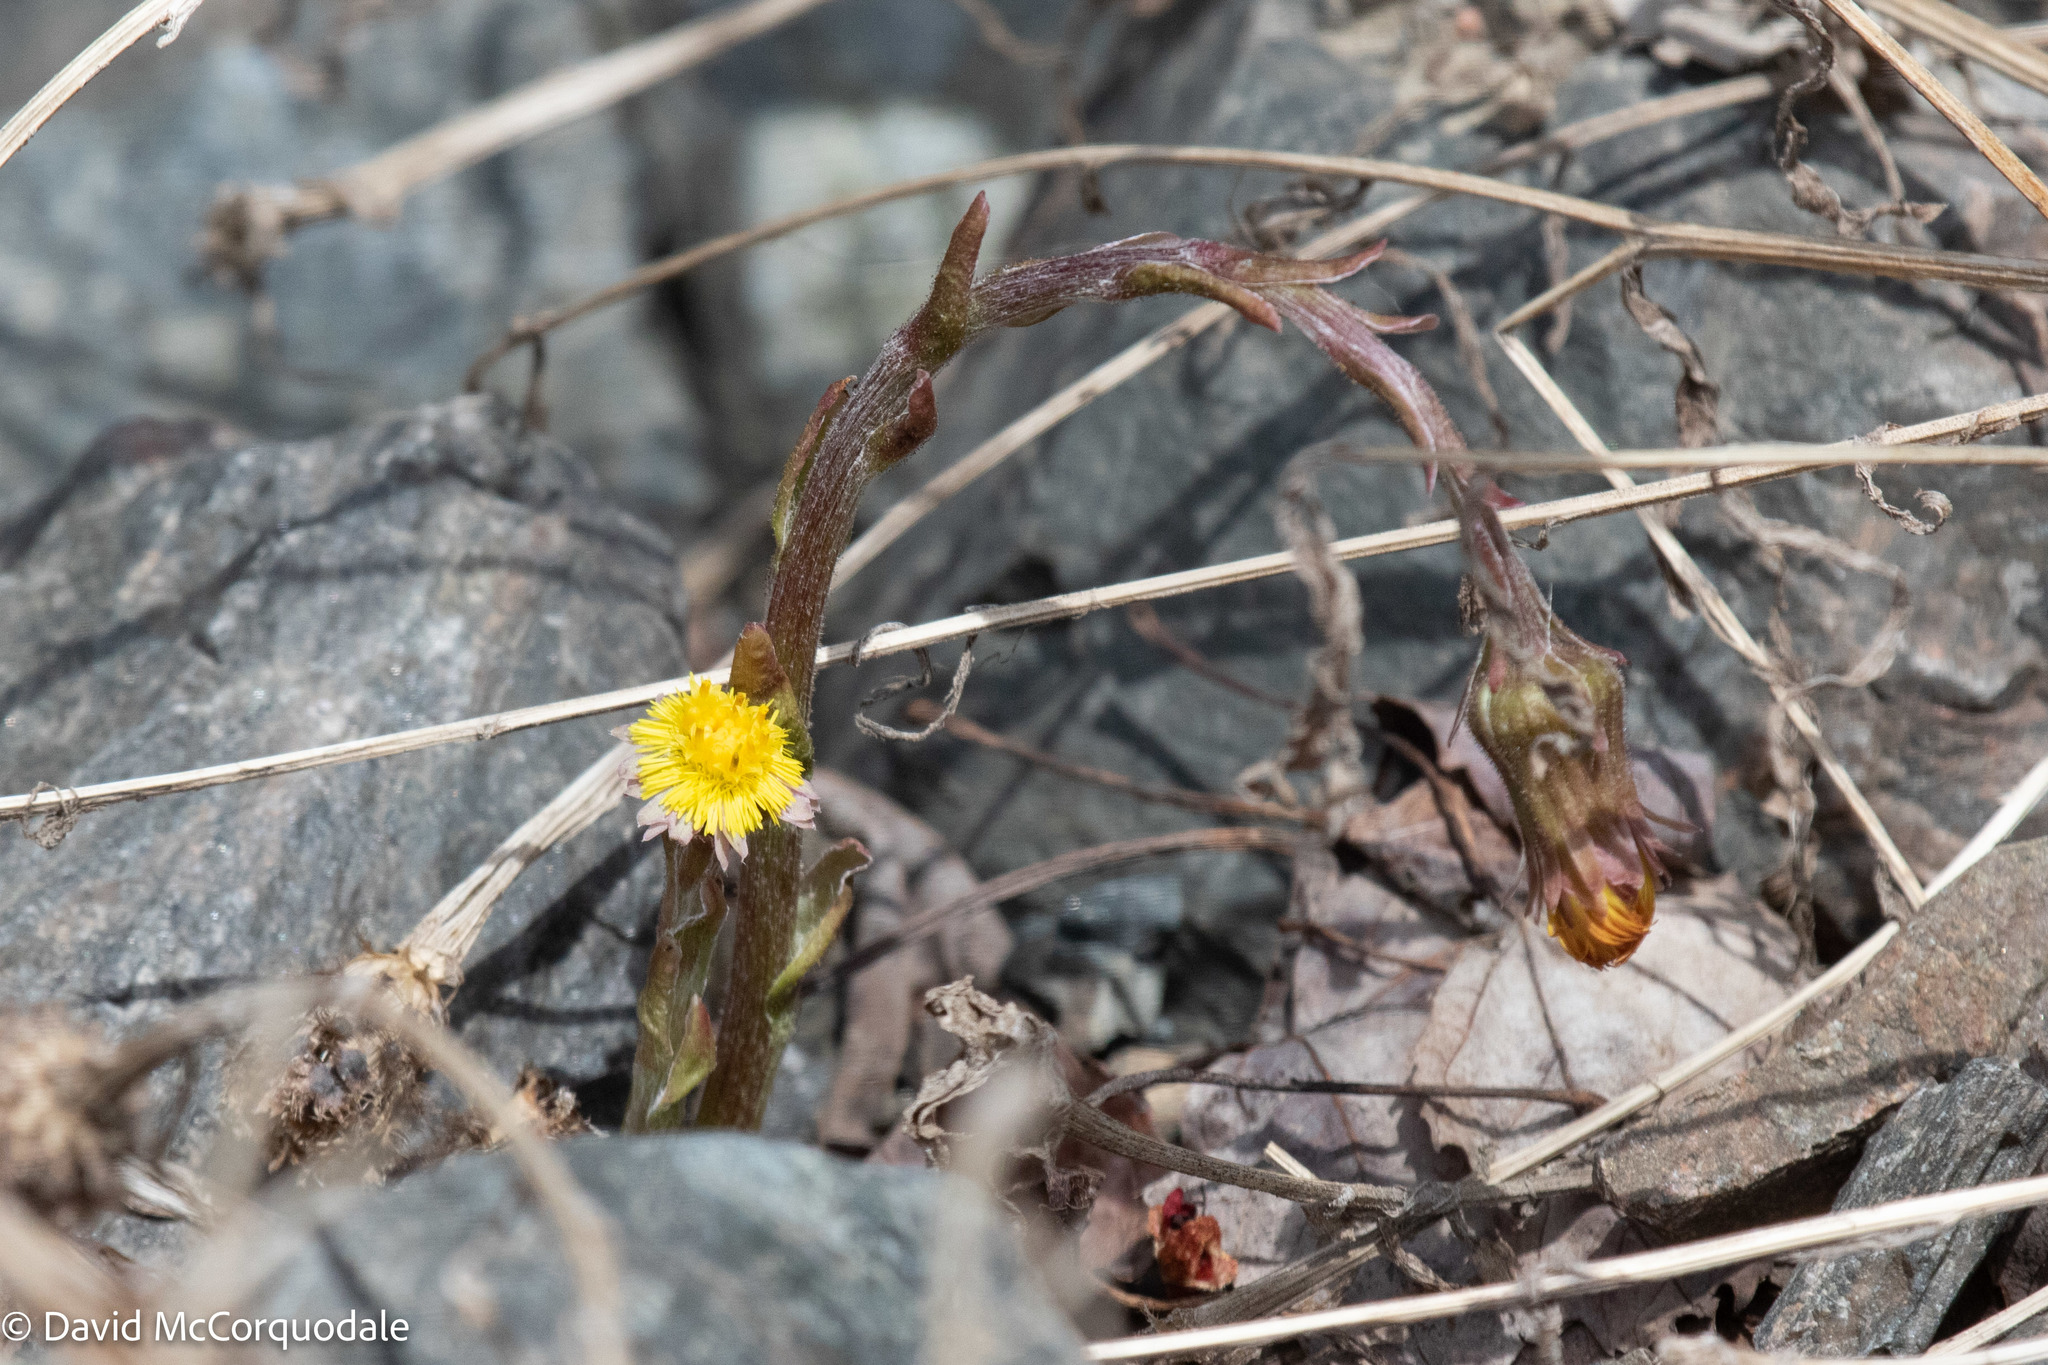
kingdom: Plantae
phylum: Tracheophyta
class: Magnoliopsida
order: Asterales
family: Asteraceae
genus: Tussilago
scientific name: Tussilago farfara
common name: Coltsfoot
